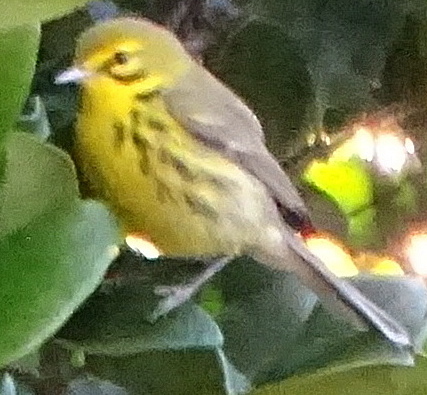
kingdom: Animalia
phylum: Chordata
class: Aves
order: Passeriformes
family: Parulidae
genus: Setophaga
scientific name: Setophaga discolor
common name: Prairie warbler
